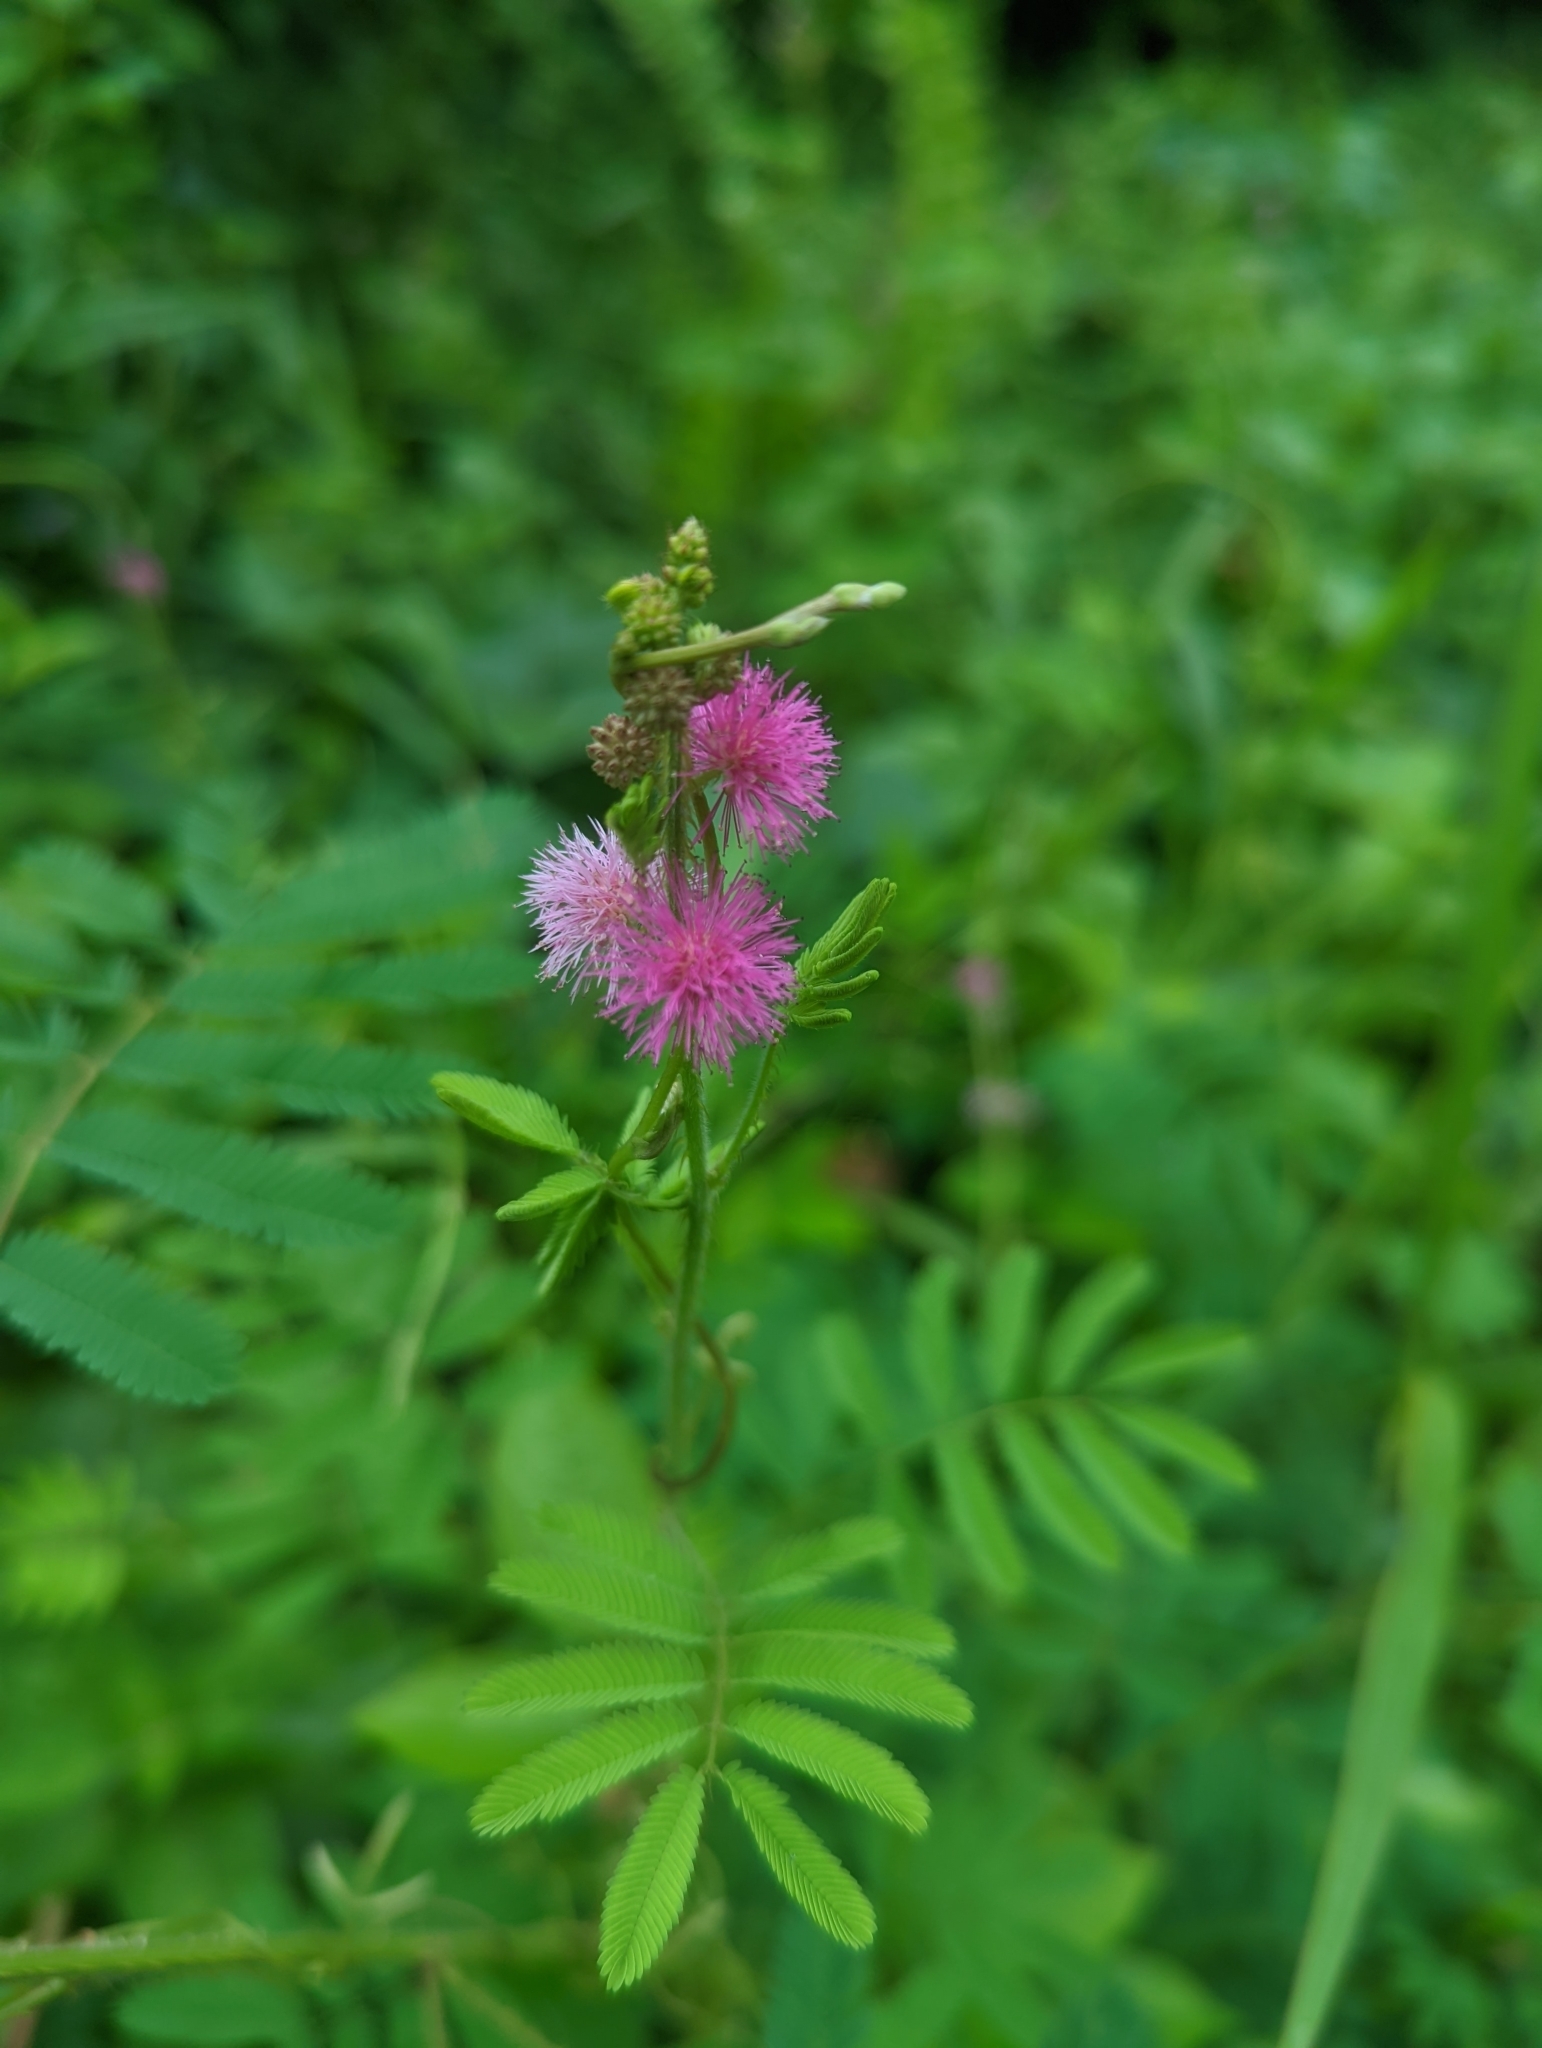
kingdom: Plantae
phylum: Tracheophyta
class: Magnoliopsida
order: Fabales
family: Fabaceae
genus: Mimosa
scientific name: Mimosa diplotricha
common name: Giant sensitive-plant
